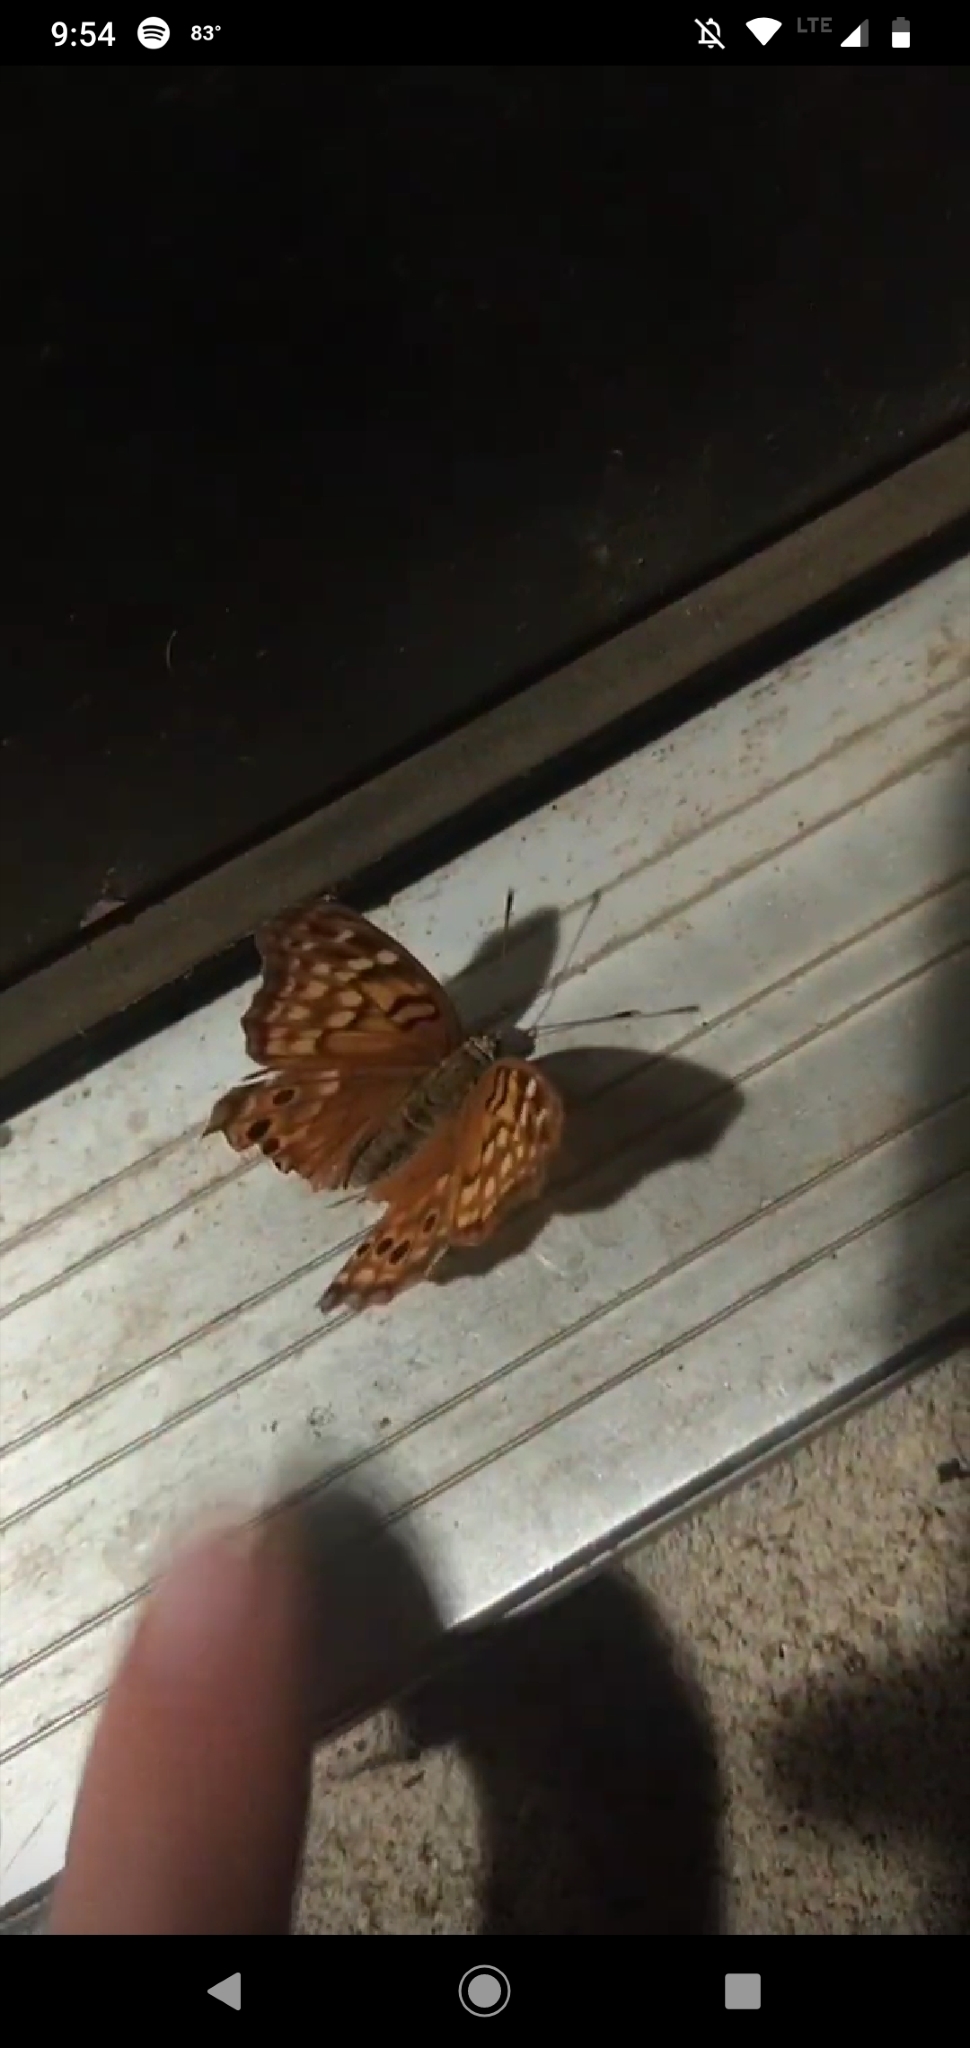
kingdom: Animalia
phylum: Arthropoda
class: Insecta
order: Lepidoptera
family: Nymphalidae
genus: Asterocampa
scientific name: Asterocampa clyton
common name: Tawny emperor
